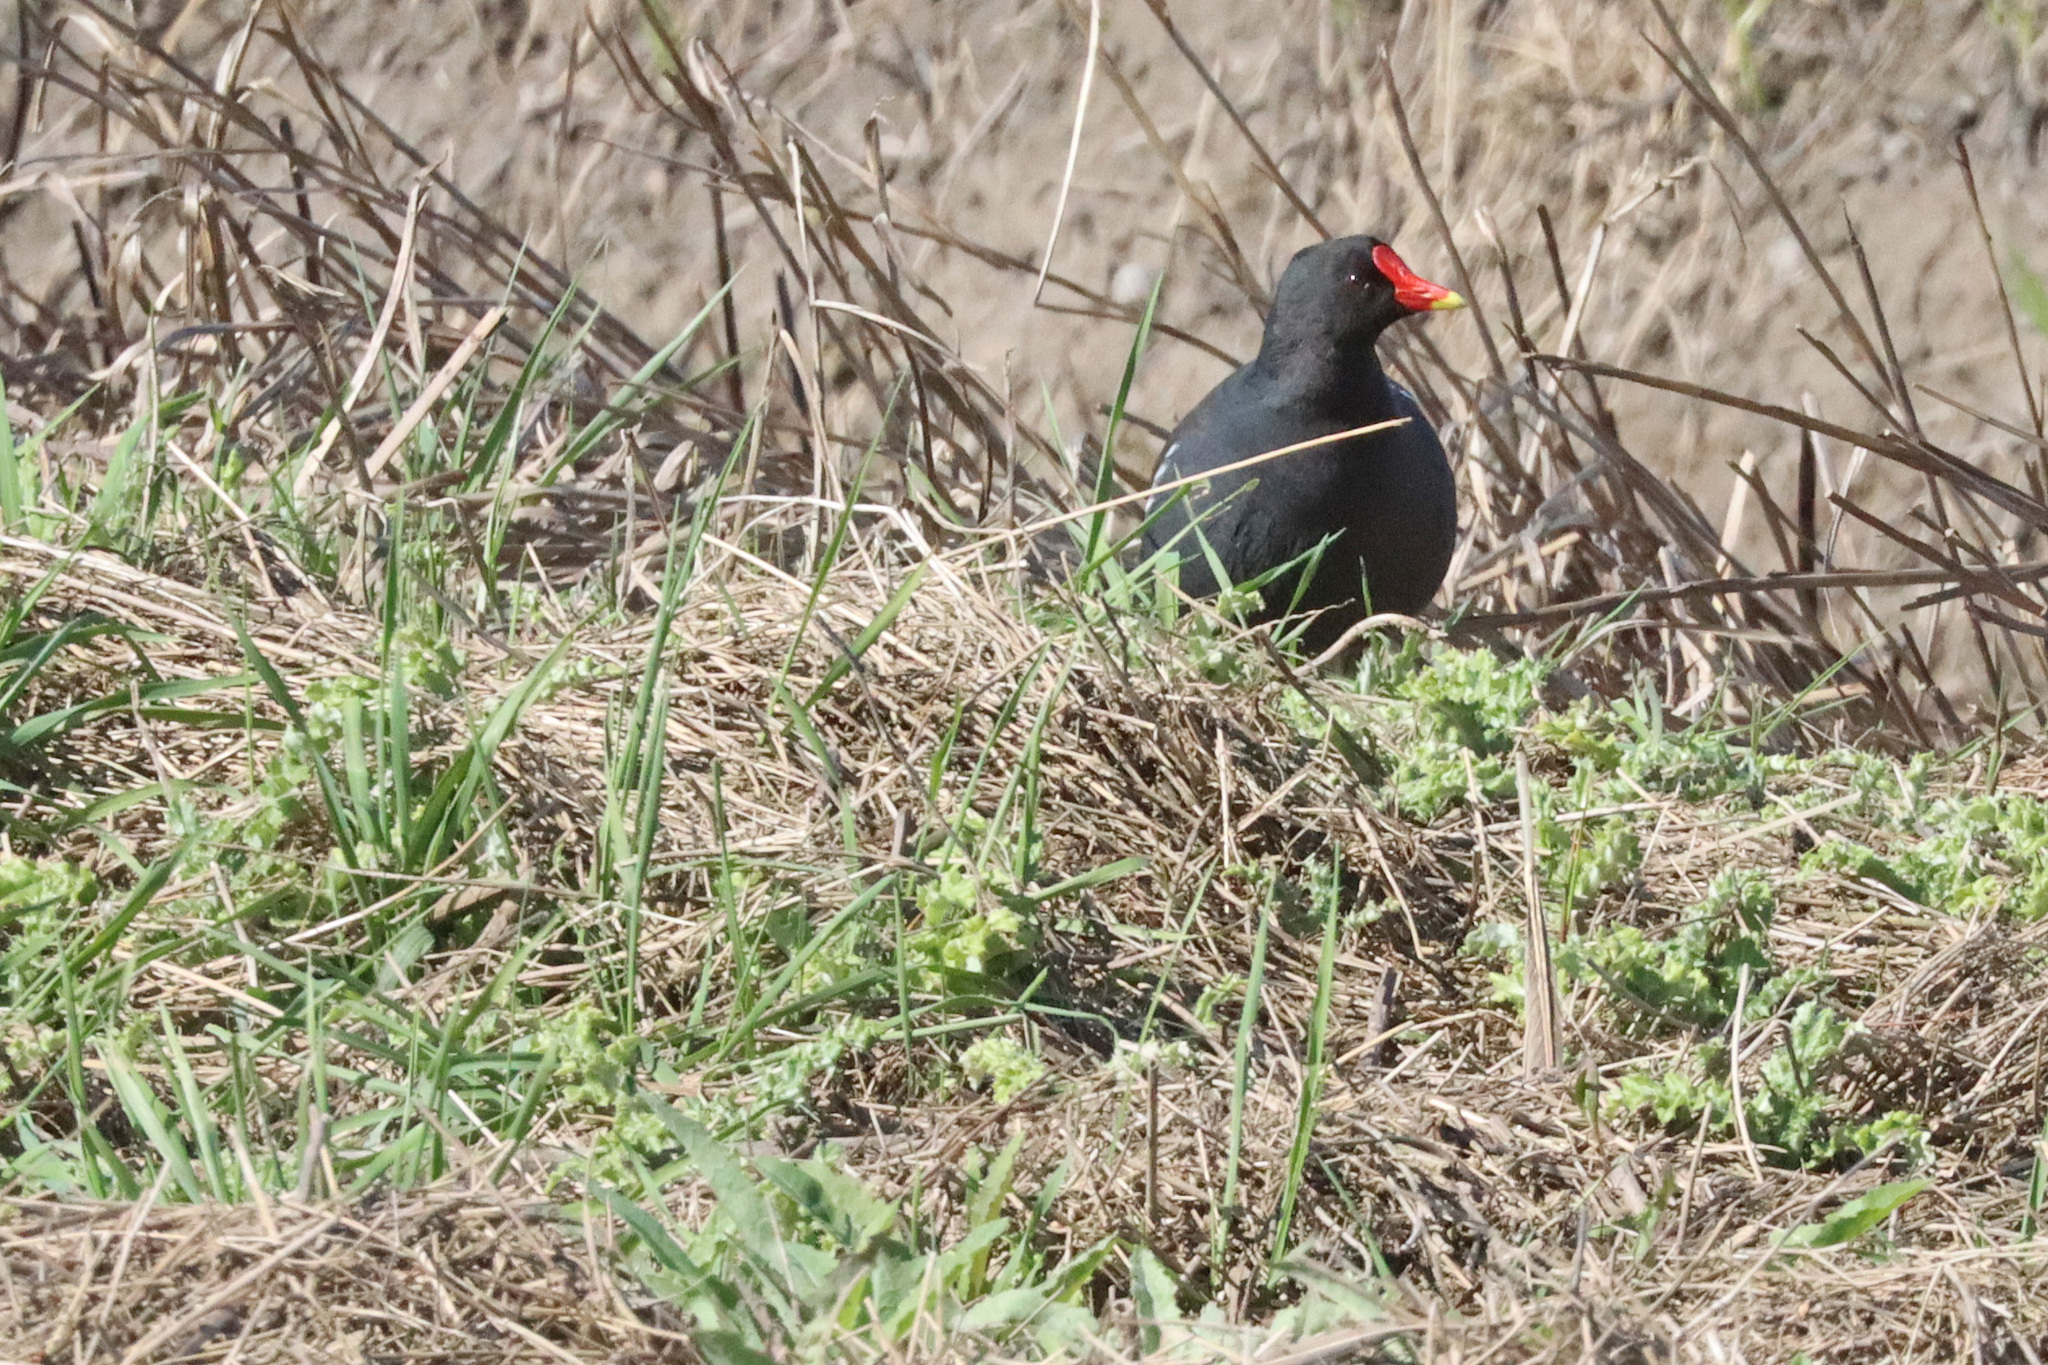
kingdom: Animalia
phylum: Chordata
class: Aves
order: Gruiformes
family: Rallidae
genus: Gallinula
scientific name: Gallinula chloropus
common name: Common moorhen
